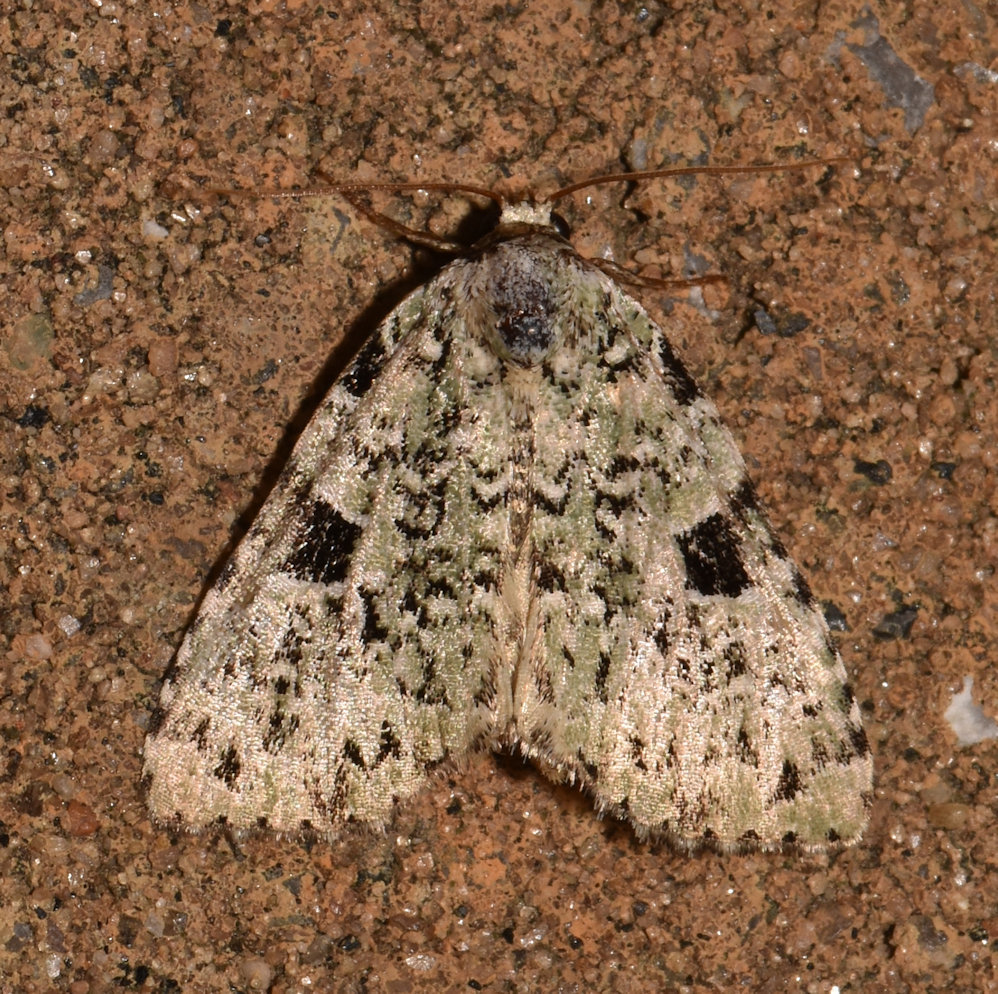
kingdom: Animalia
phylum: Arthropoda
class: Insecta
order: Lepidoptera
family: Noctuidae
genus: Leuconycta
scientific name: Leuconycta diphteroides
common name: Green leuconycta moth
